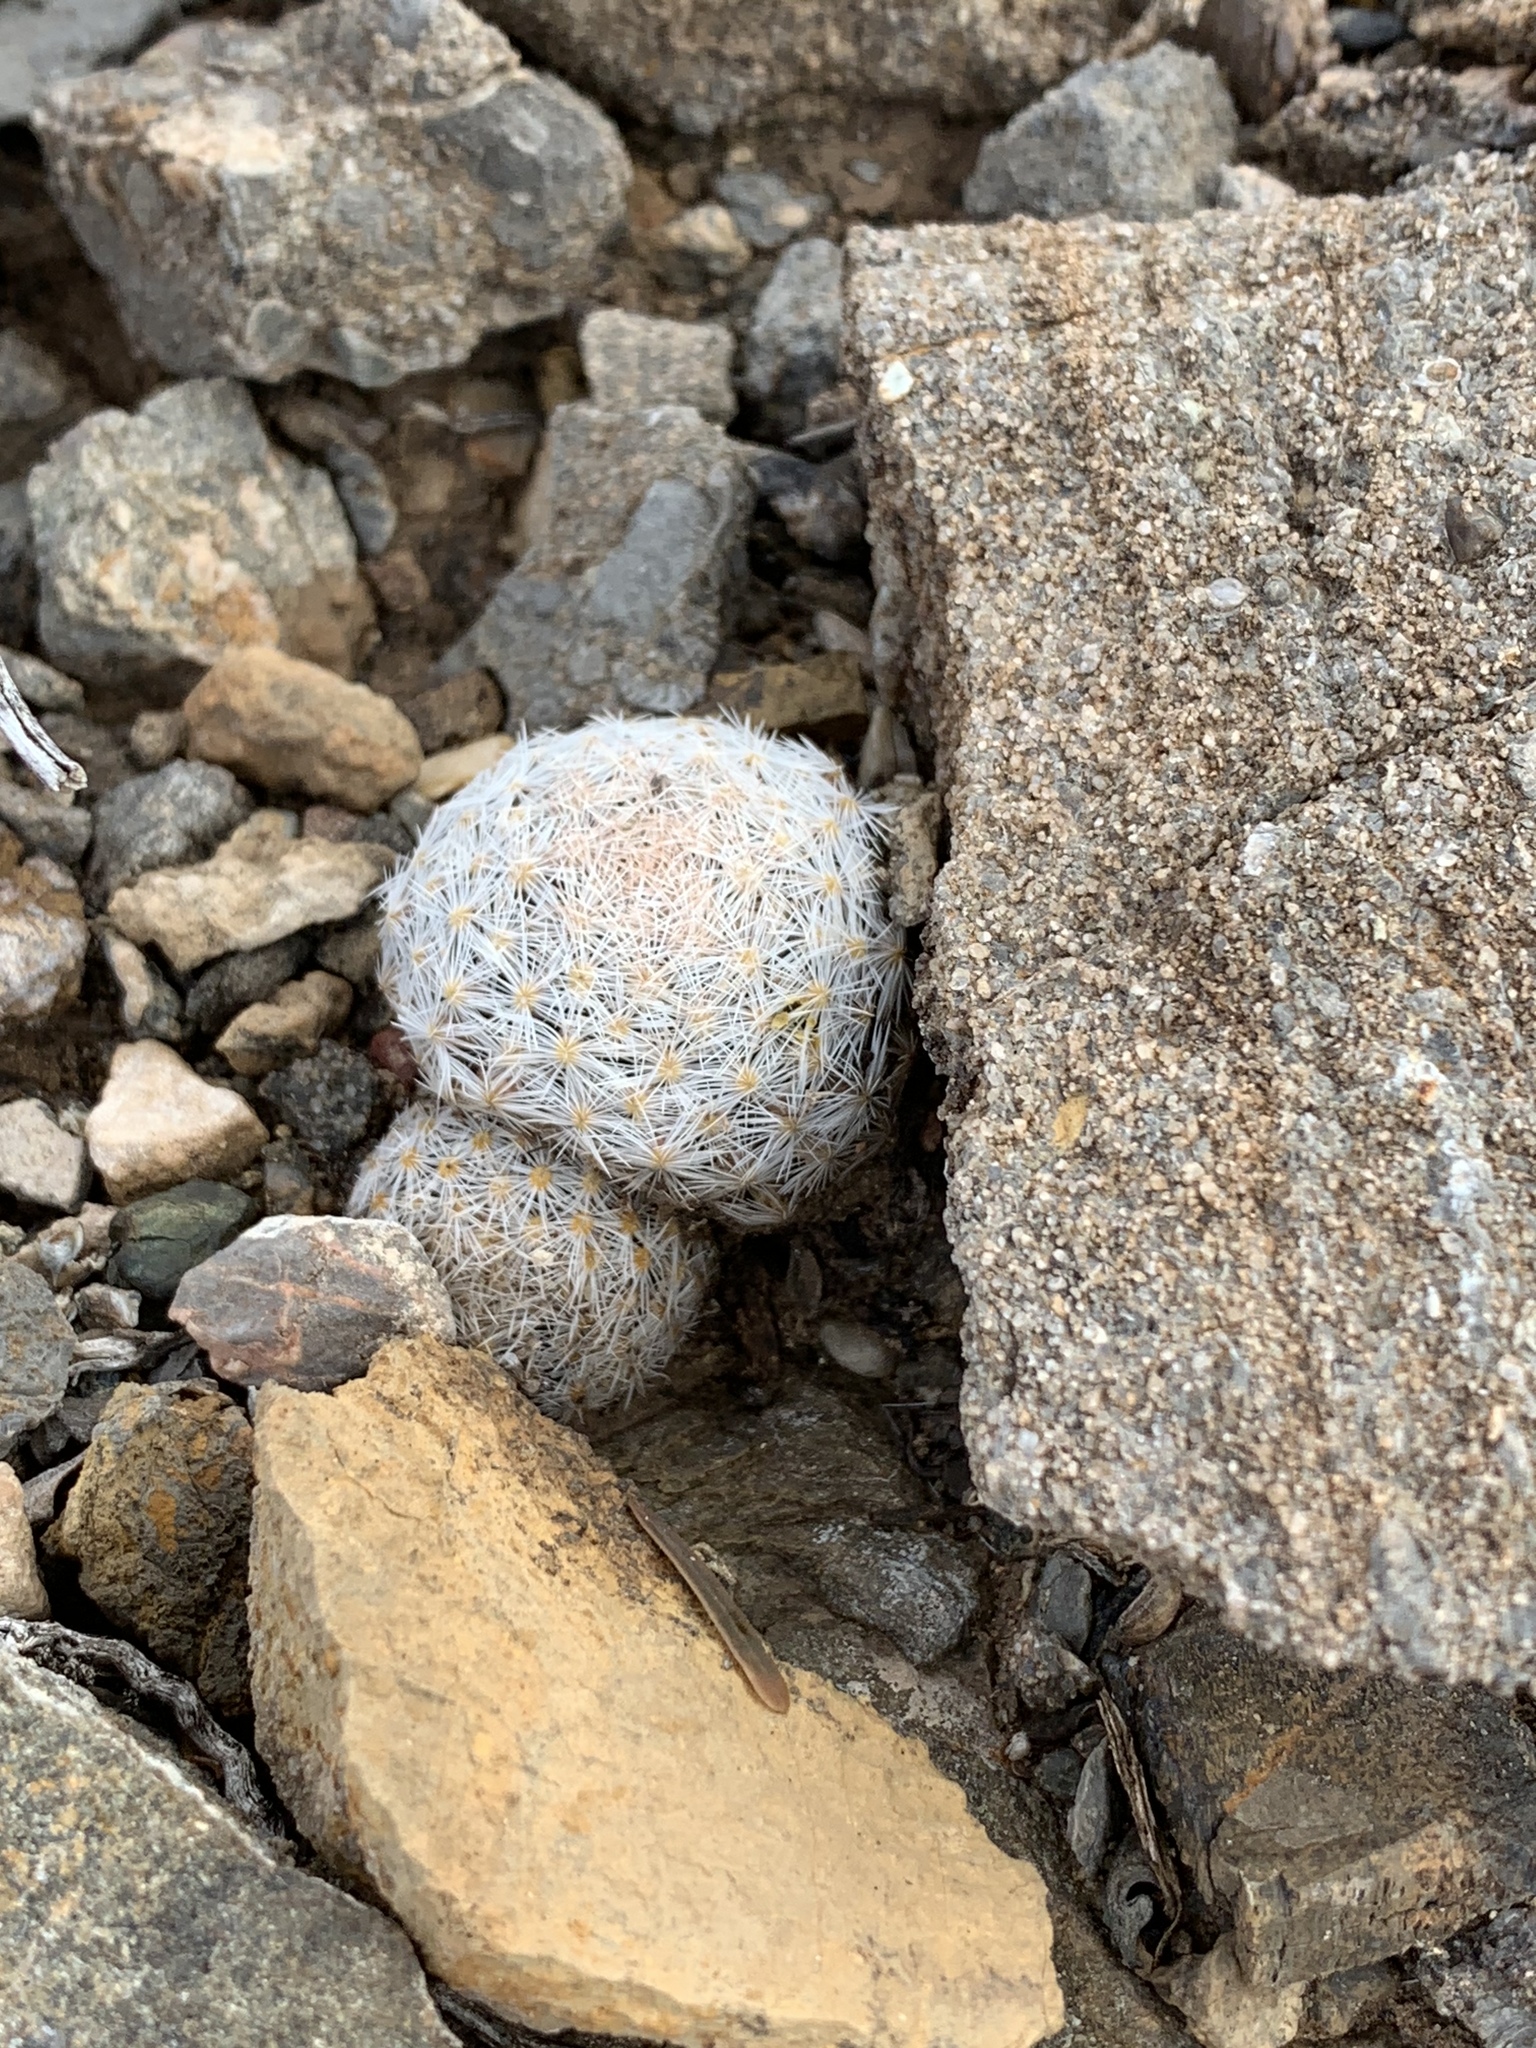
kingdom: Plantae
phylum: Tracheophyta
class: Magnoliopsida
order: Caryophyllales
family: Cactaceae
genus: Mammillaria
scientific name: Mammillaria lasiacantha
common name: Lace-spine nipple cactus
